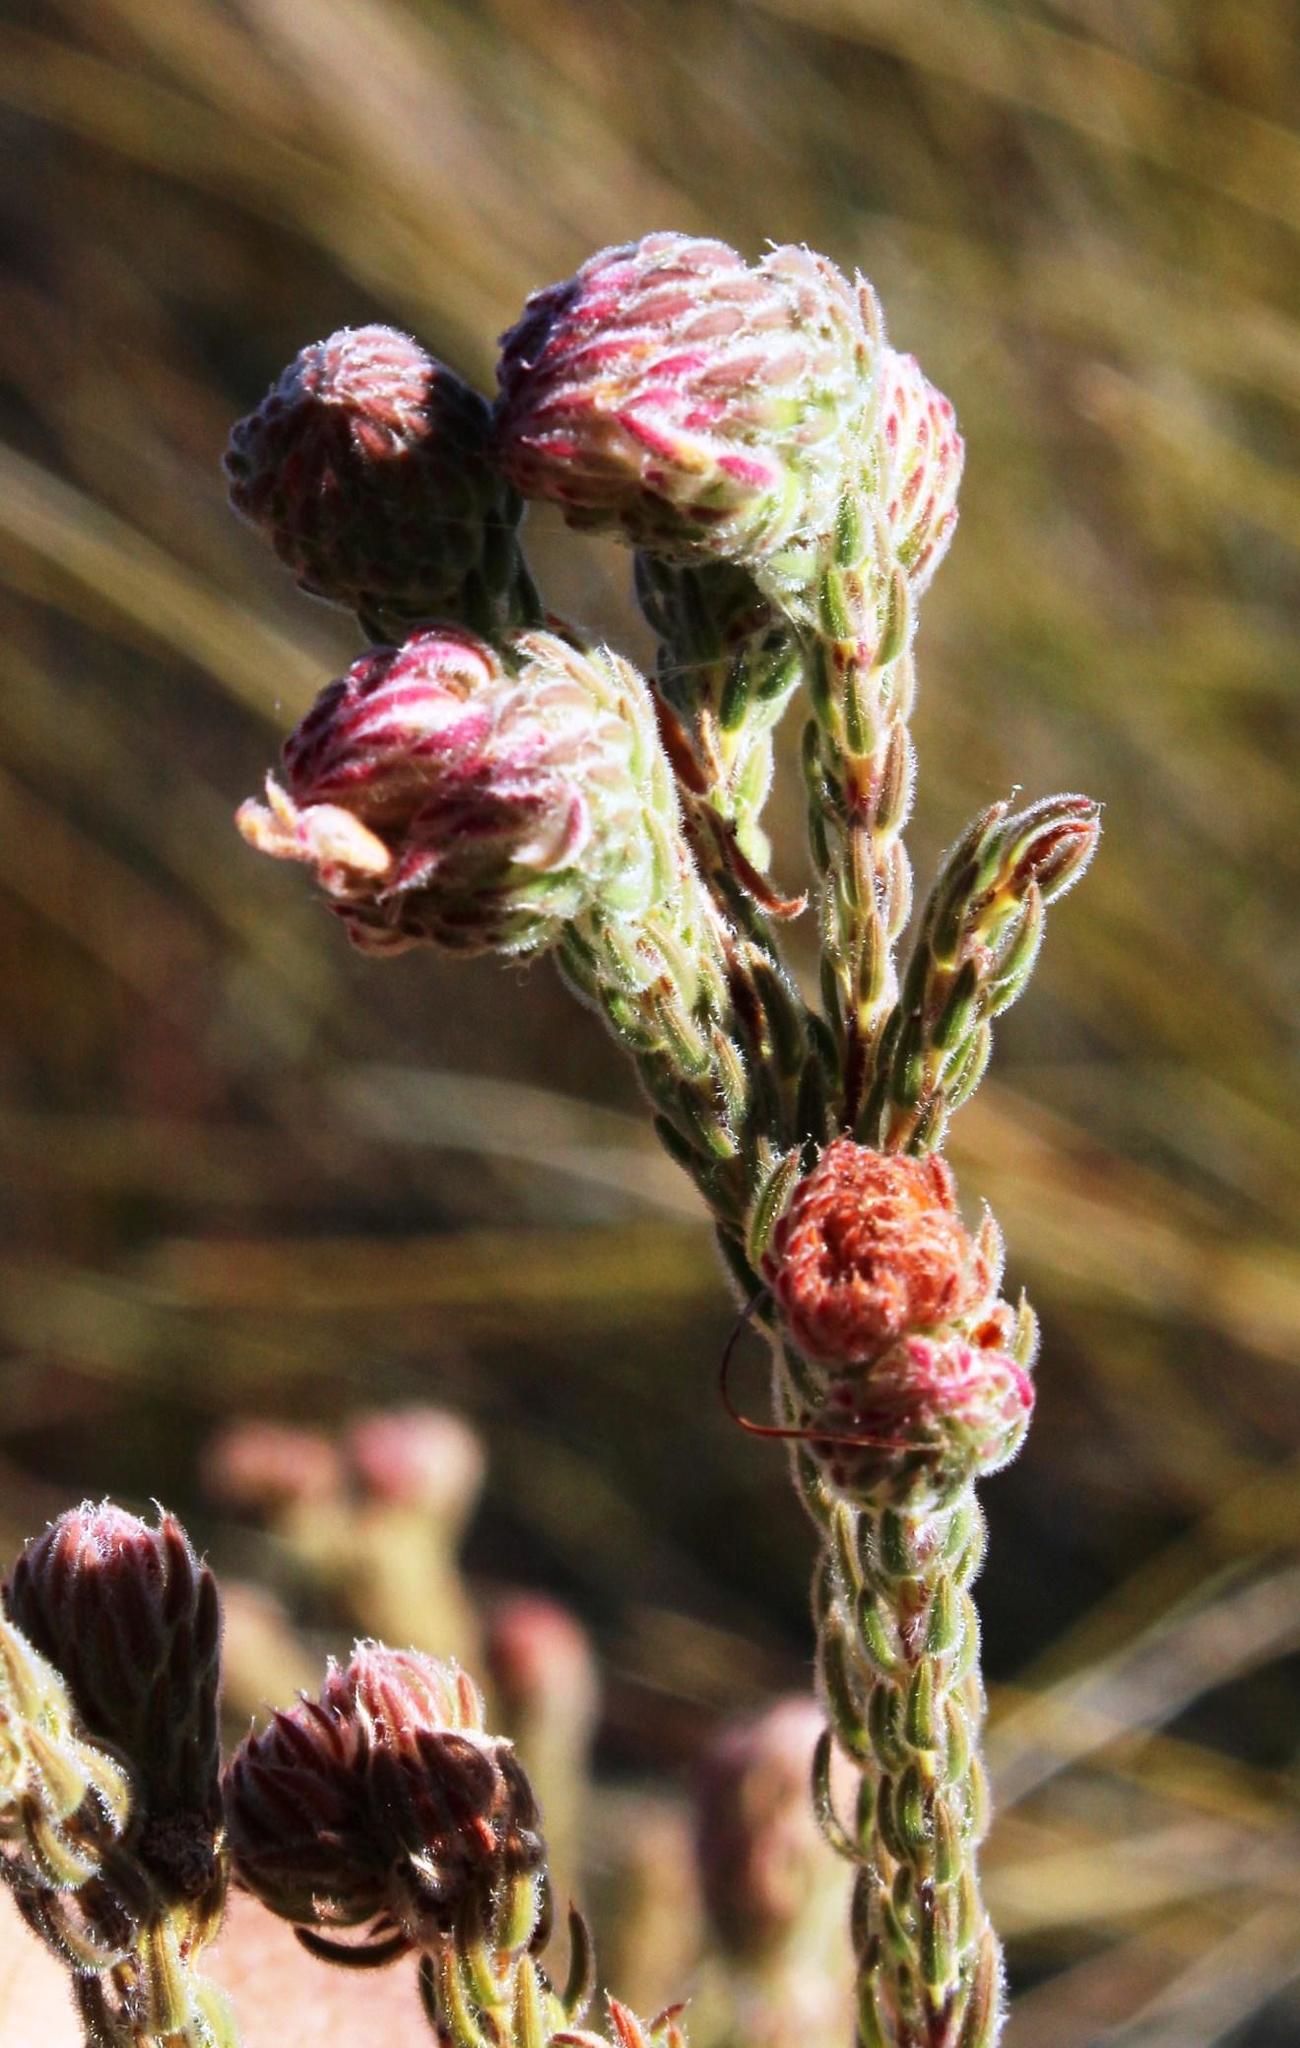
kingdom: Plantae
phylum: Tracheophyta
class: Magnoliopsida
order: Ericales
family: Ericaceae
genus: Erica
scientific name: Erica maderi
